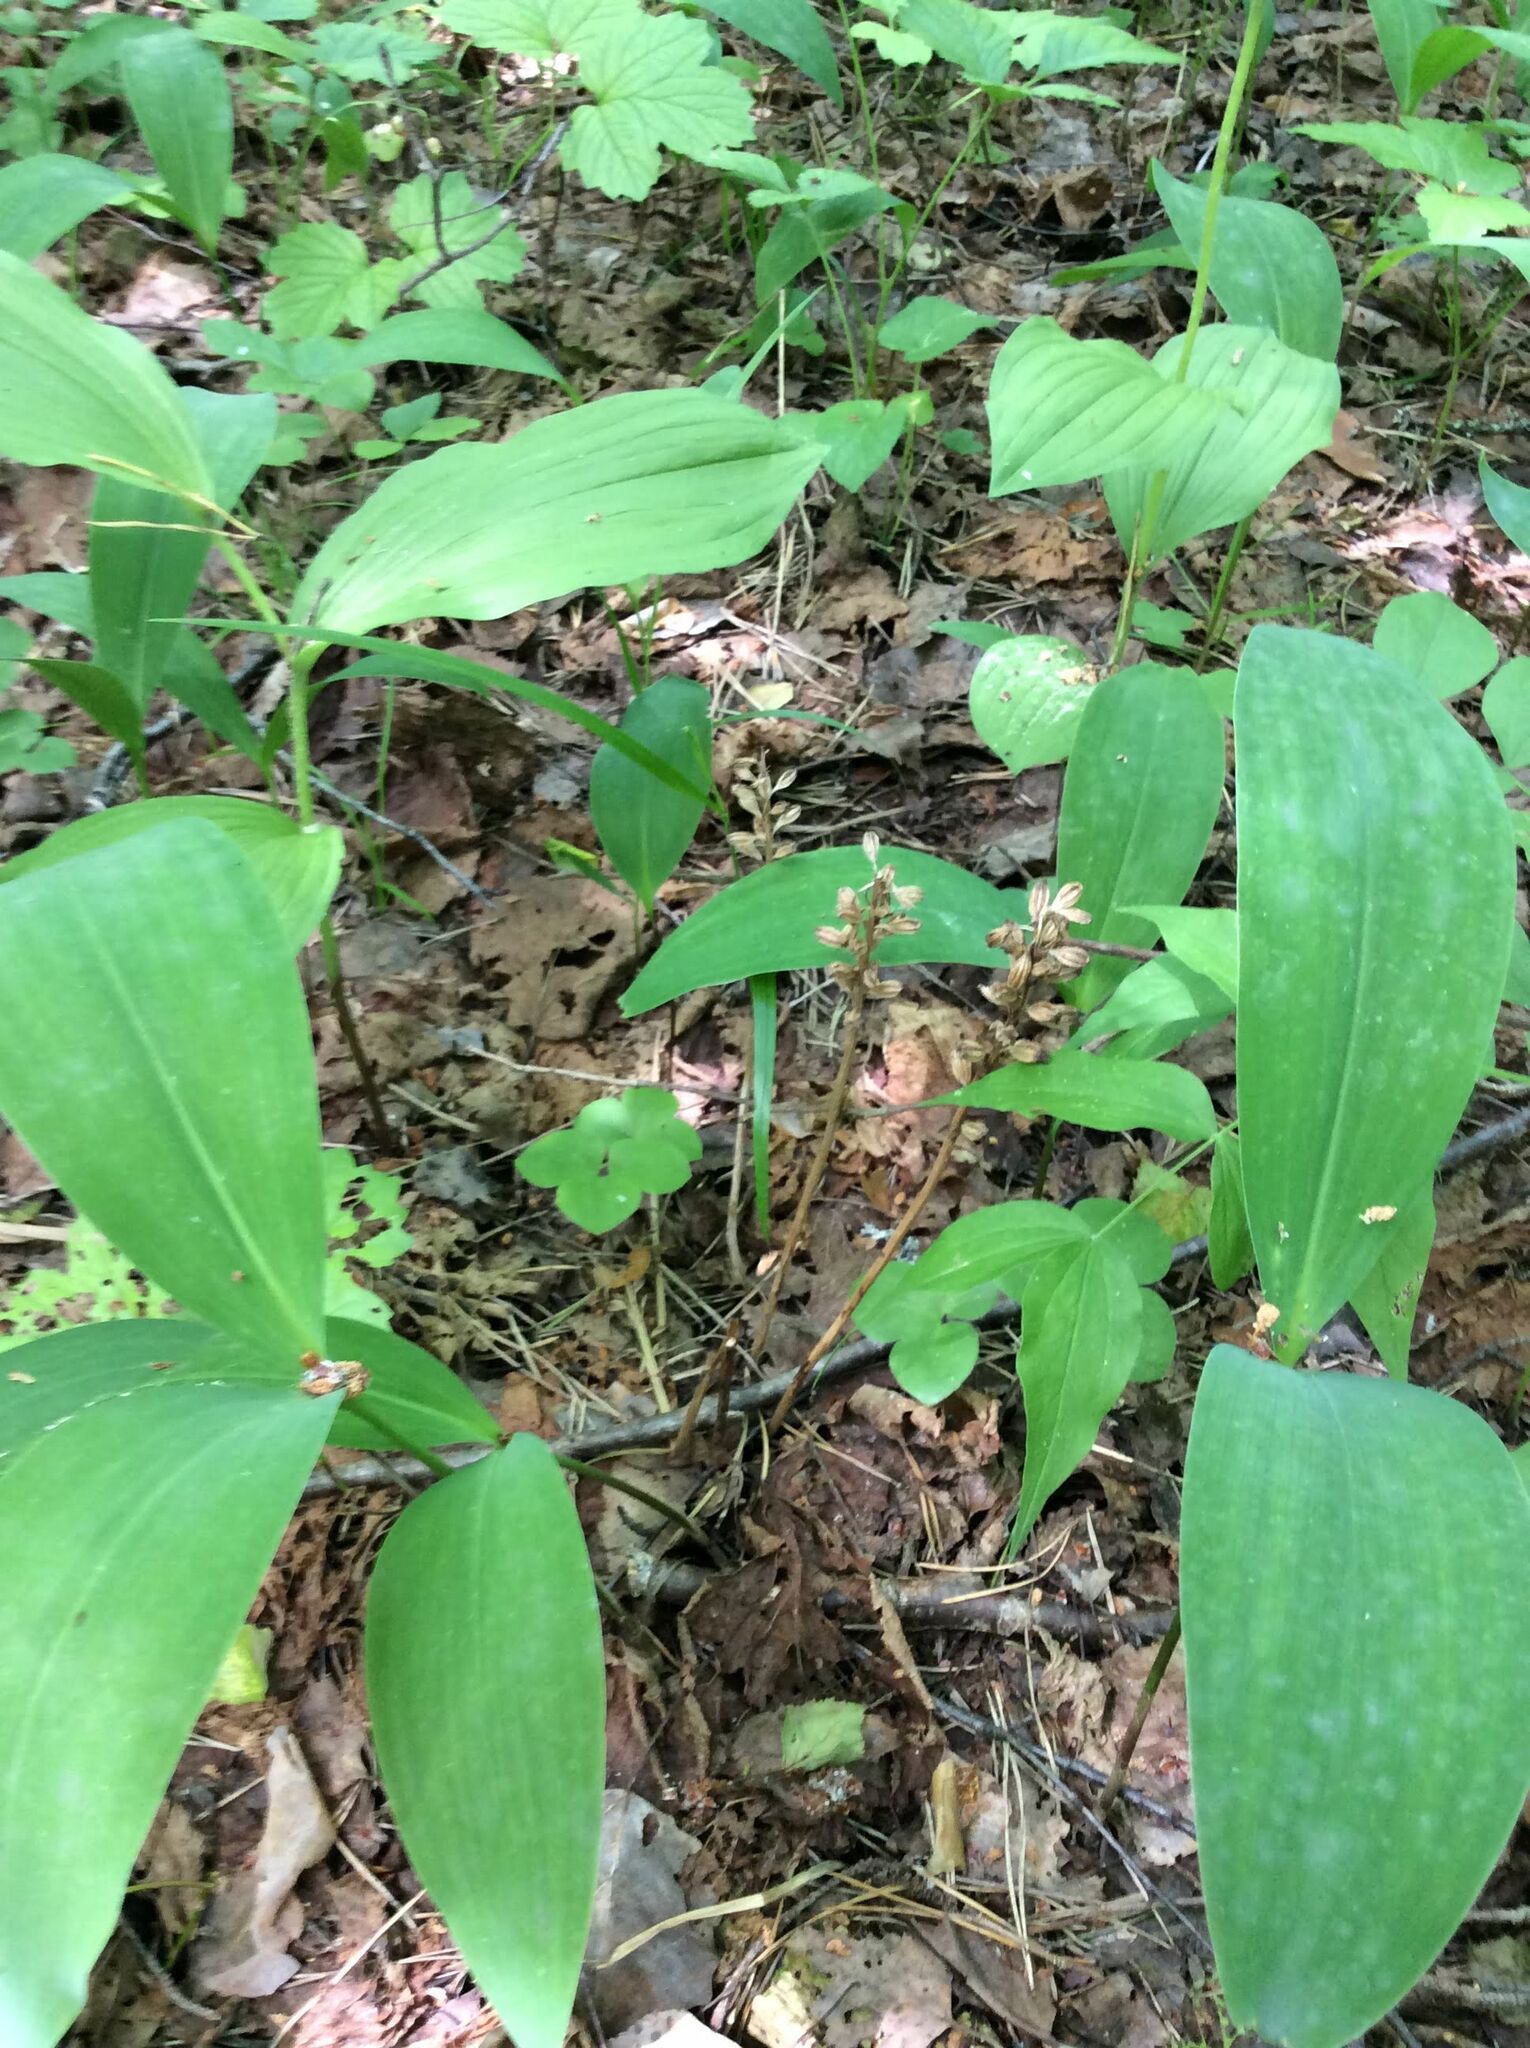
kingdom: Plantae
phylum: Tracheophyta
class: Liliopsida
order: Asparagales
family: Orchidaceae
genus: Neottia
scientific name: Neottia nidus-avis
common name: Bird's-nest orchid
